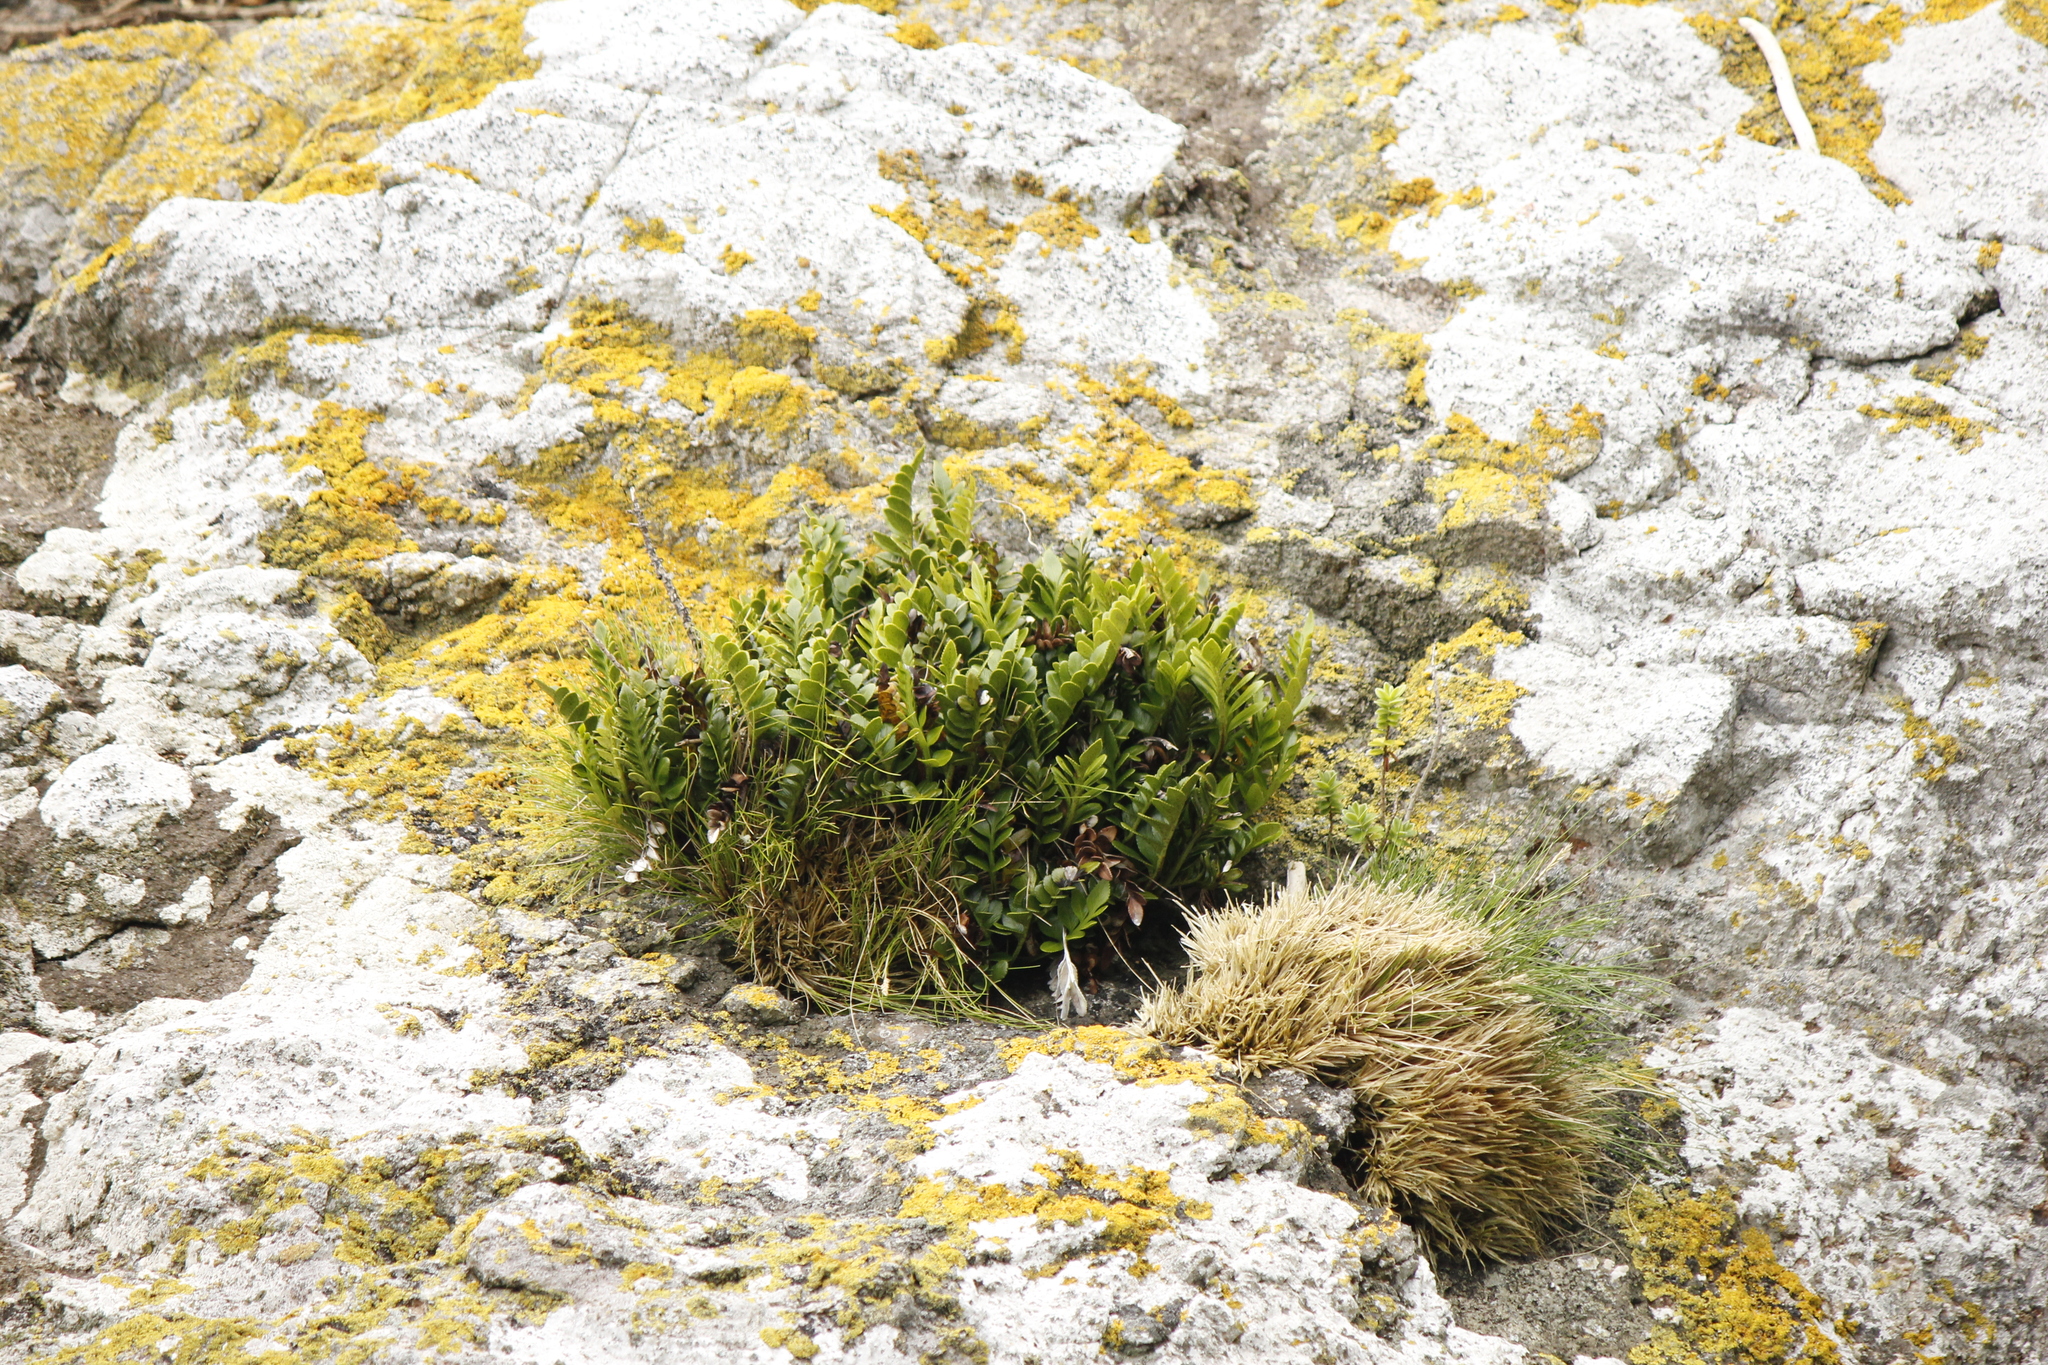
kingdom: Plantae
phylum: Tracheophyta
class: Polypodiopsida
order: Polypodiales
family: Aspleniaceae
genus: Asplenium
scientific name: Asplenium obtusatum
